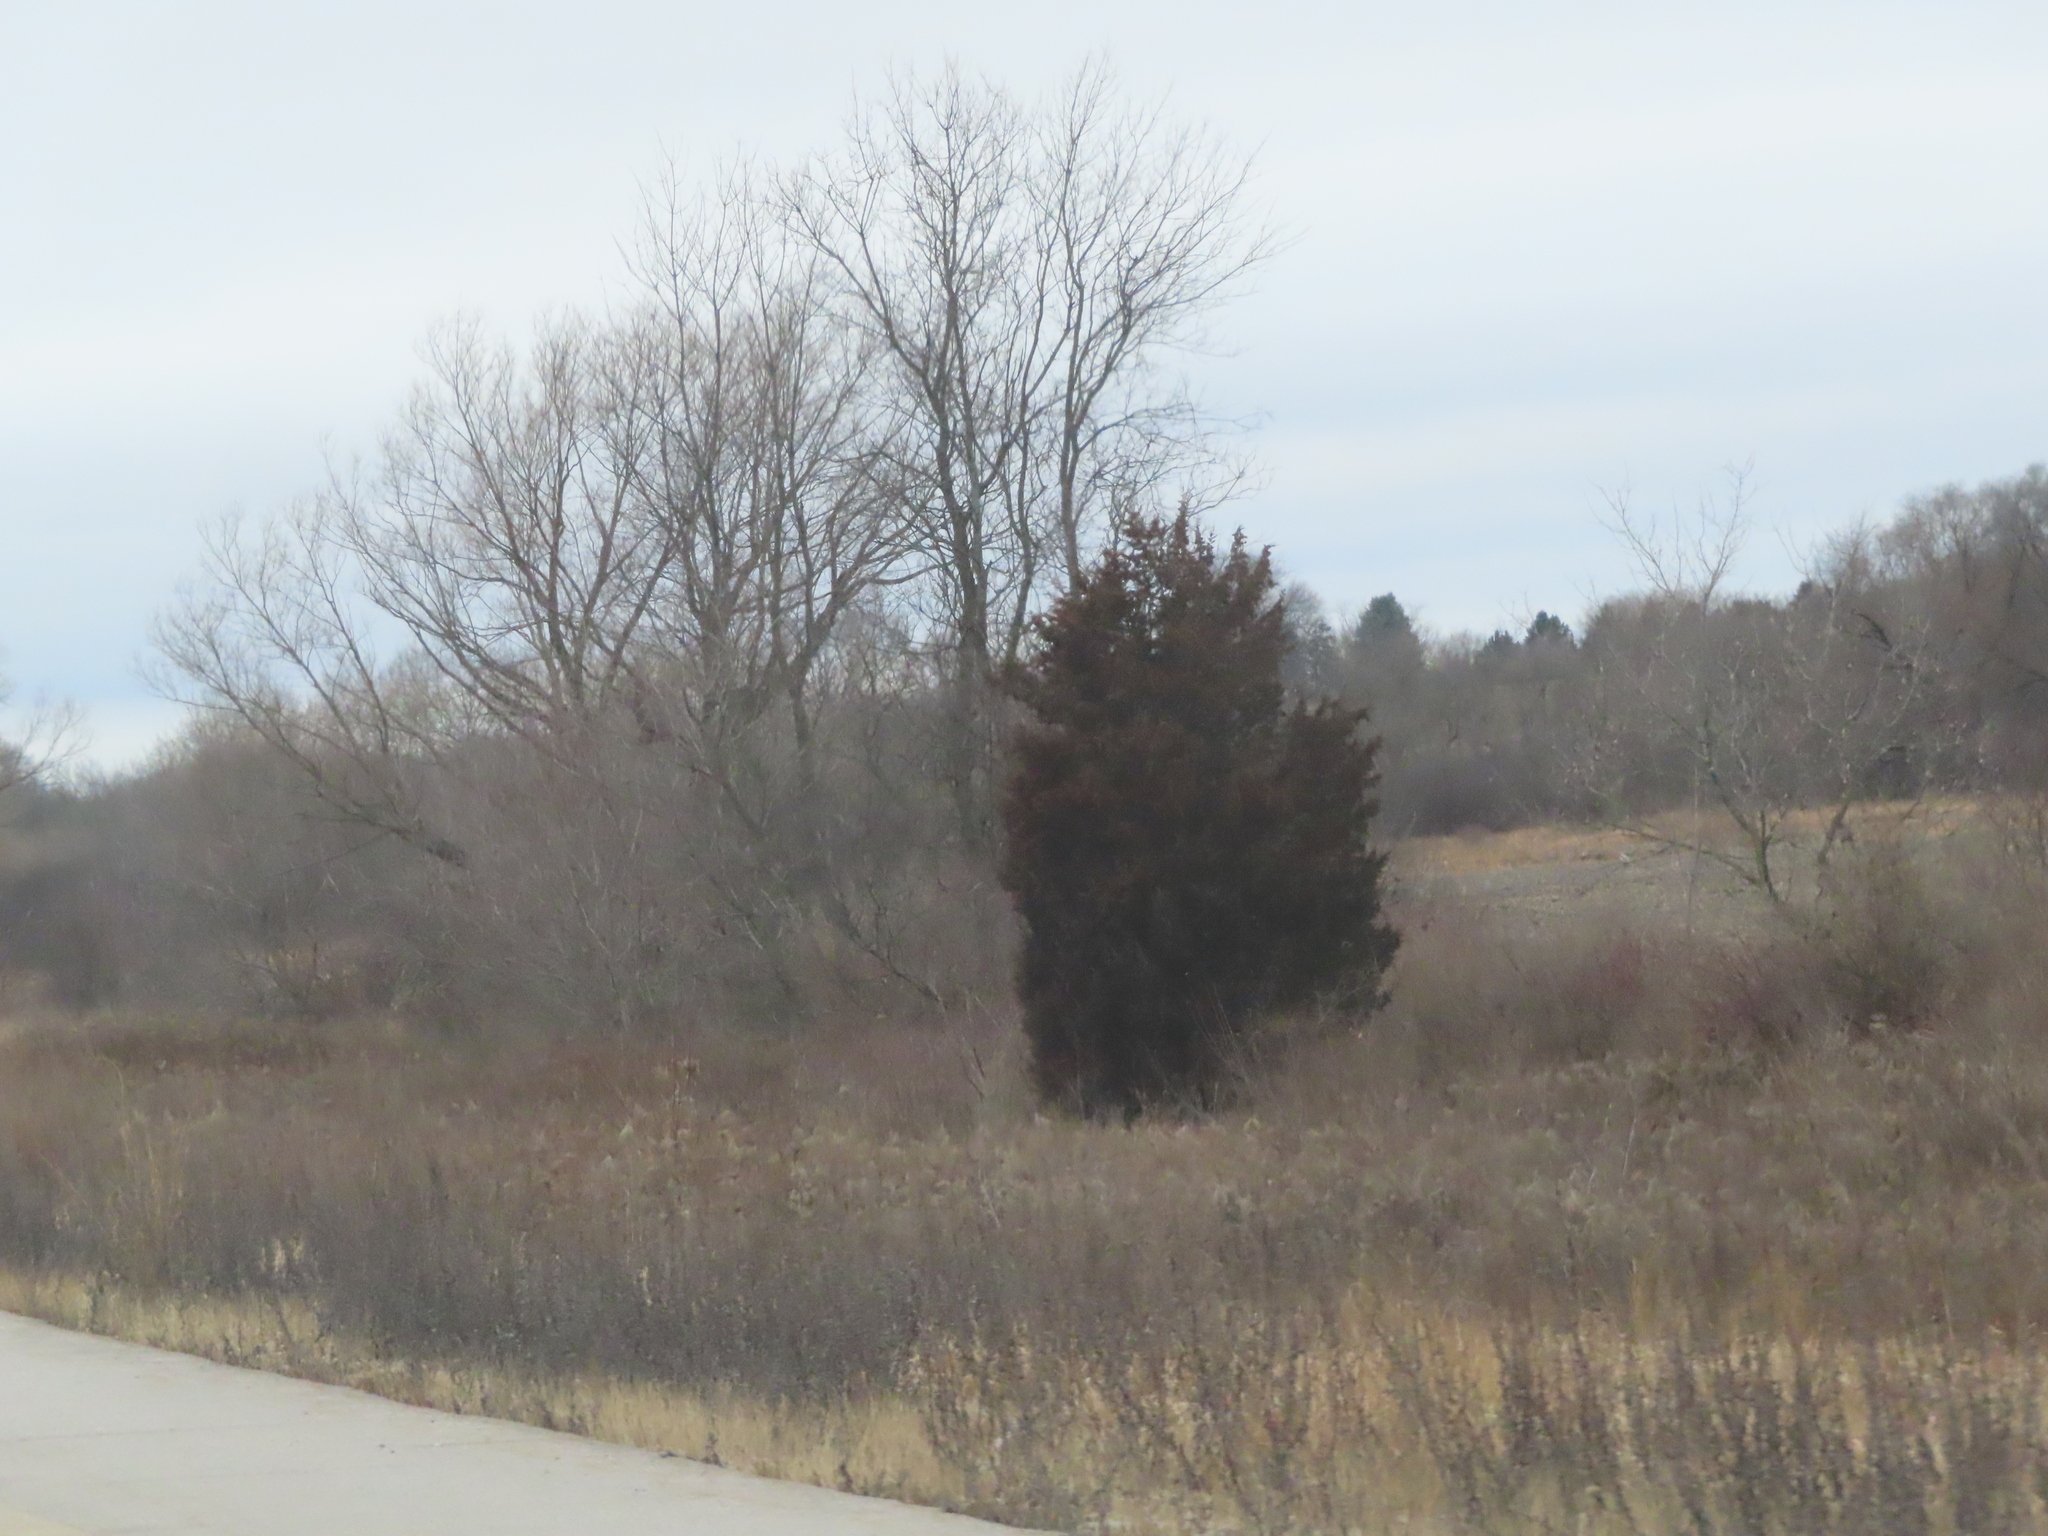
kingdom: Plantae
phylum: Tracheophyta
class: Pinopsida
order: Pinales
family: Cupressaceae
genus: Juniperus
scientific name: Juniperus virginiana
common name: Red juniper
